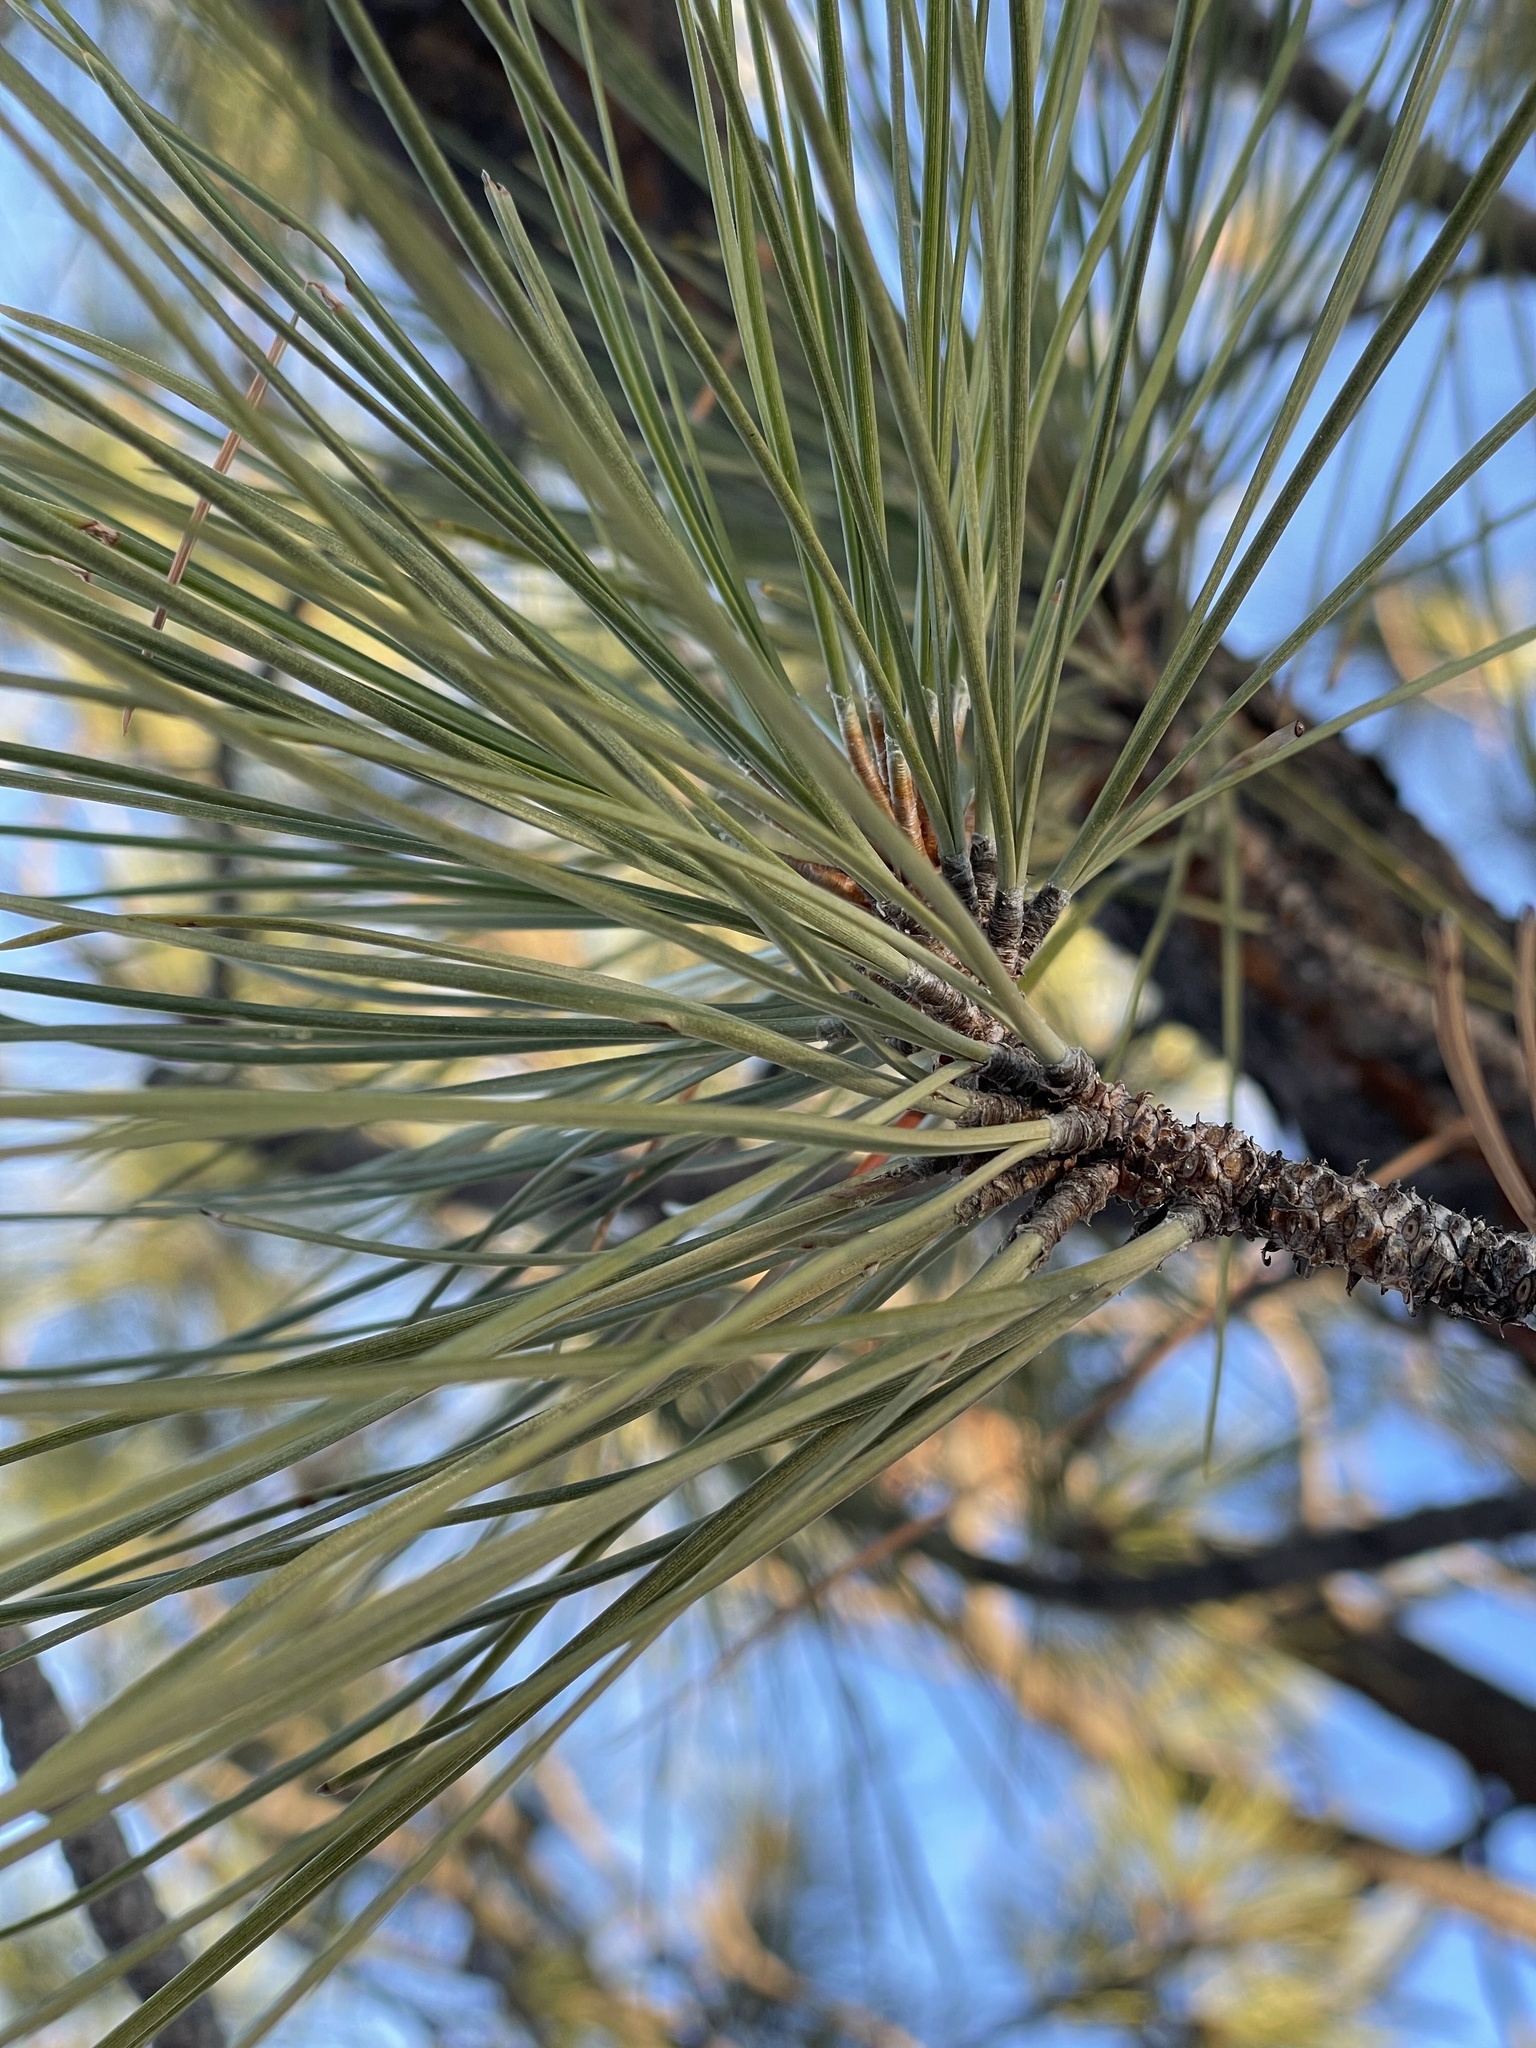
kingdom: Plantae
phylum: Tracheophyta
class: Pinopsida
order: Pinales
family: Pinaceae
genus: Pinus
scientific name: Pinus ponderosa
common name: Western yellow-pine
